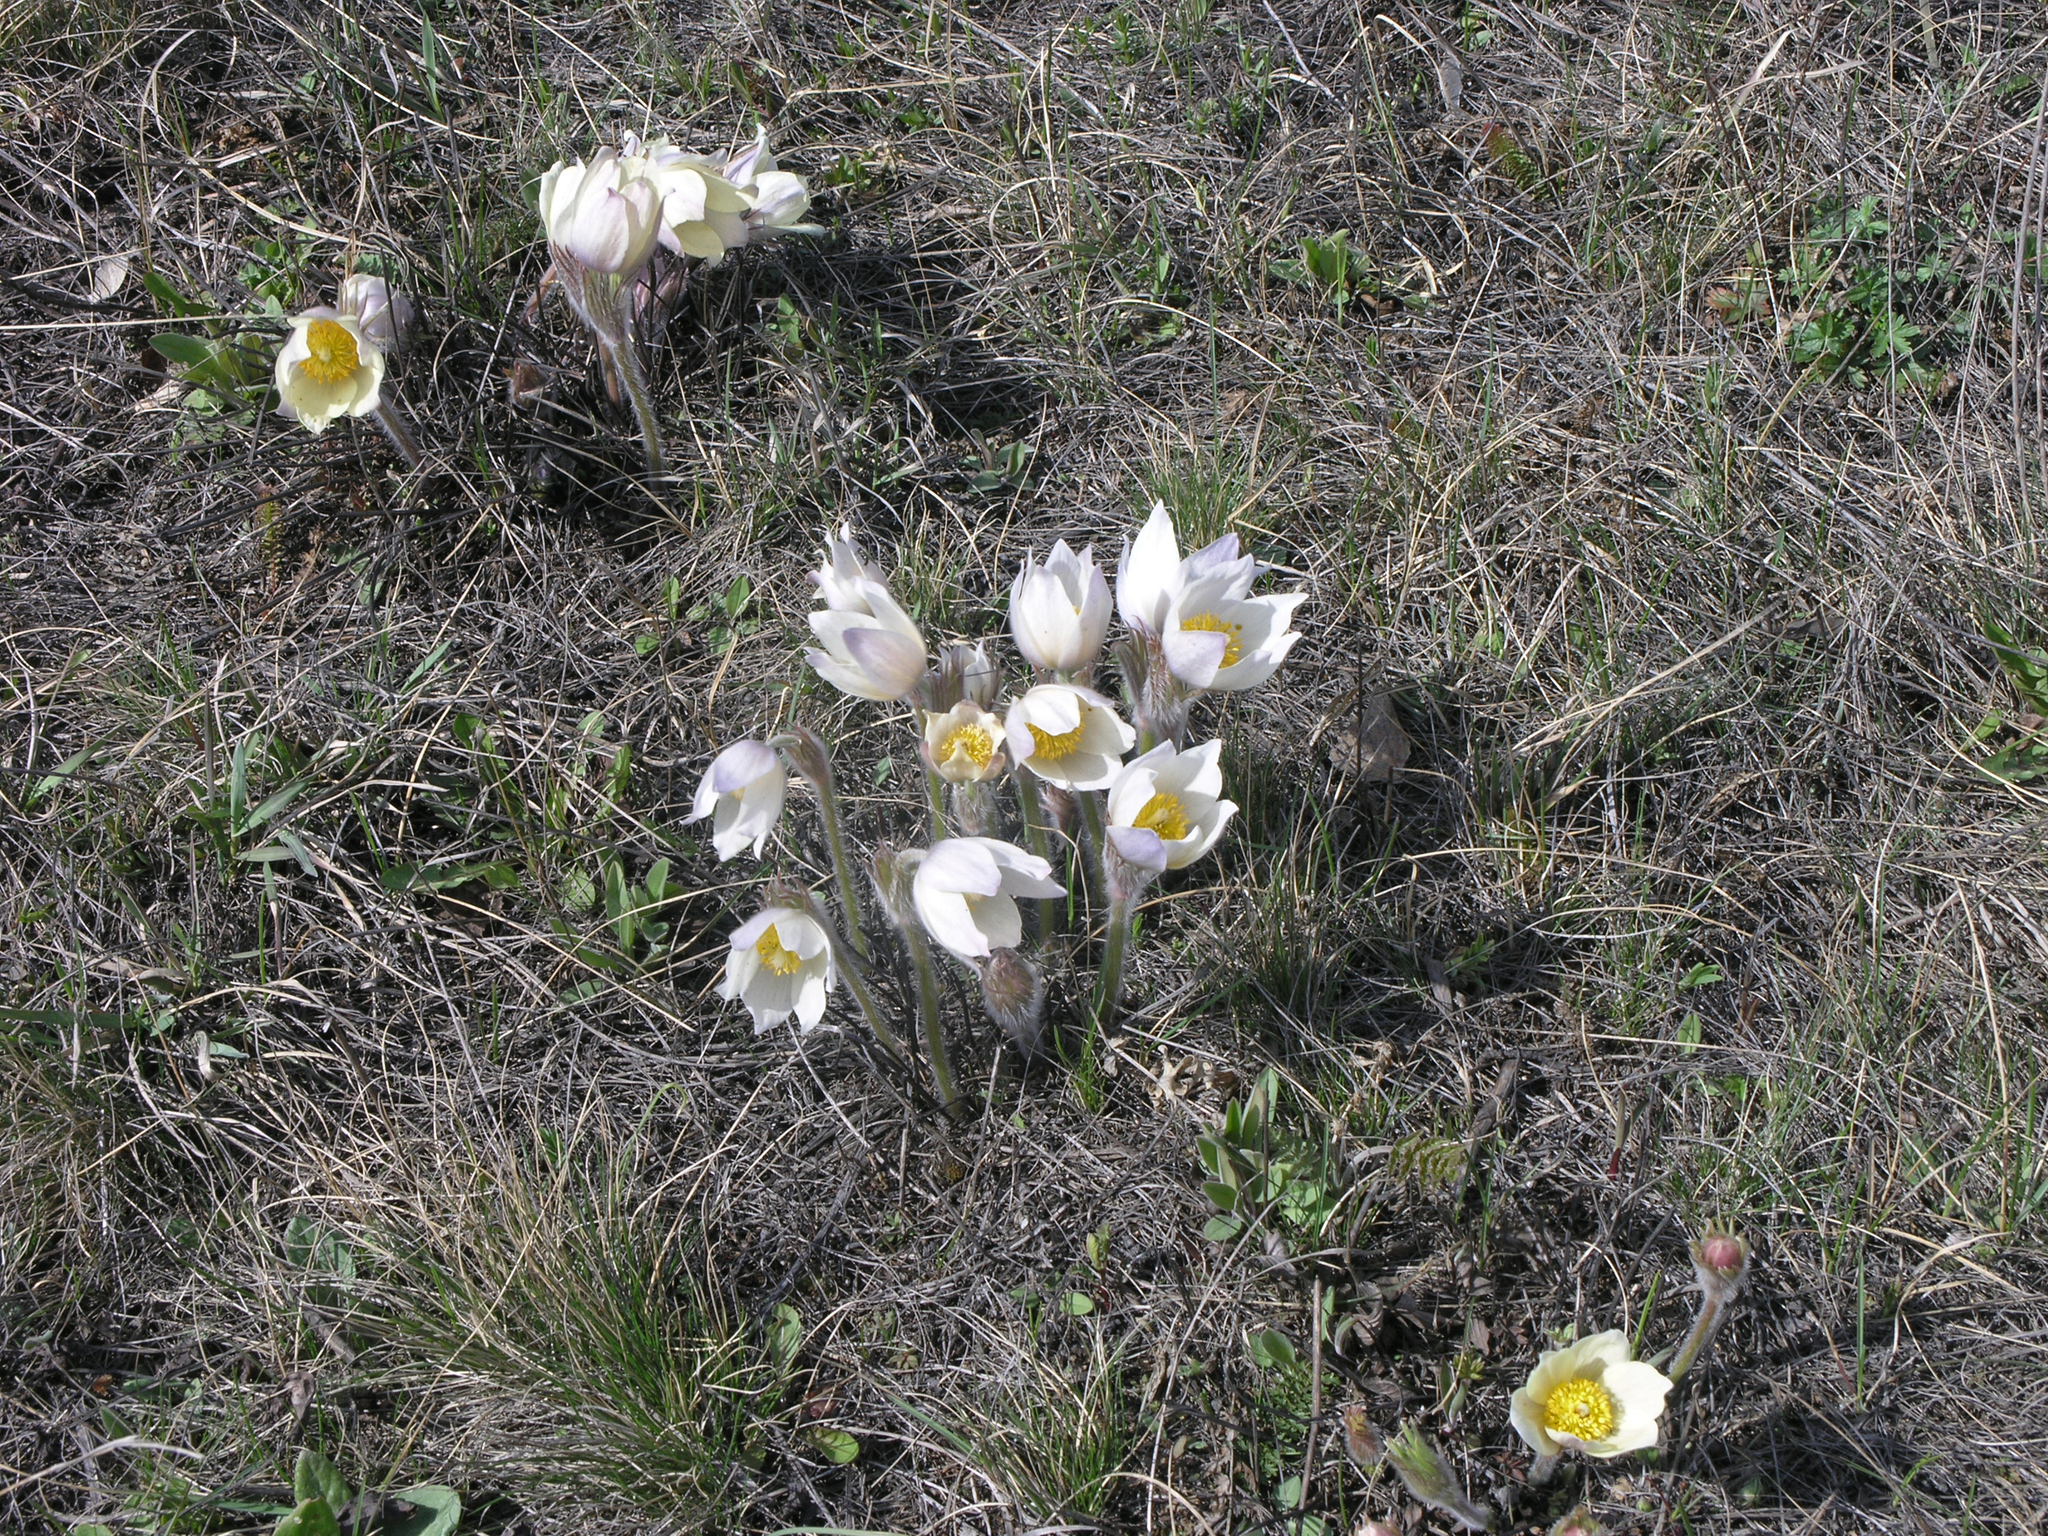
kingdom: Plantae
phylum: Tracheophyta
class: Magnoliopsida
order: Ranunculales
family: Ranunculaceae
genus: Pulsatilla
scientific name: Pulsatilla patens
